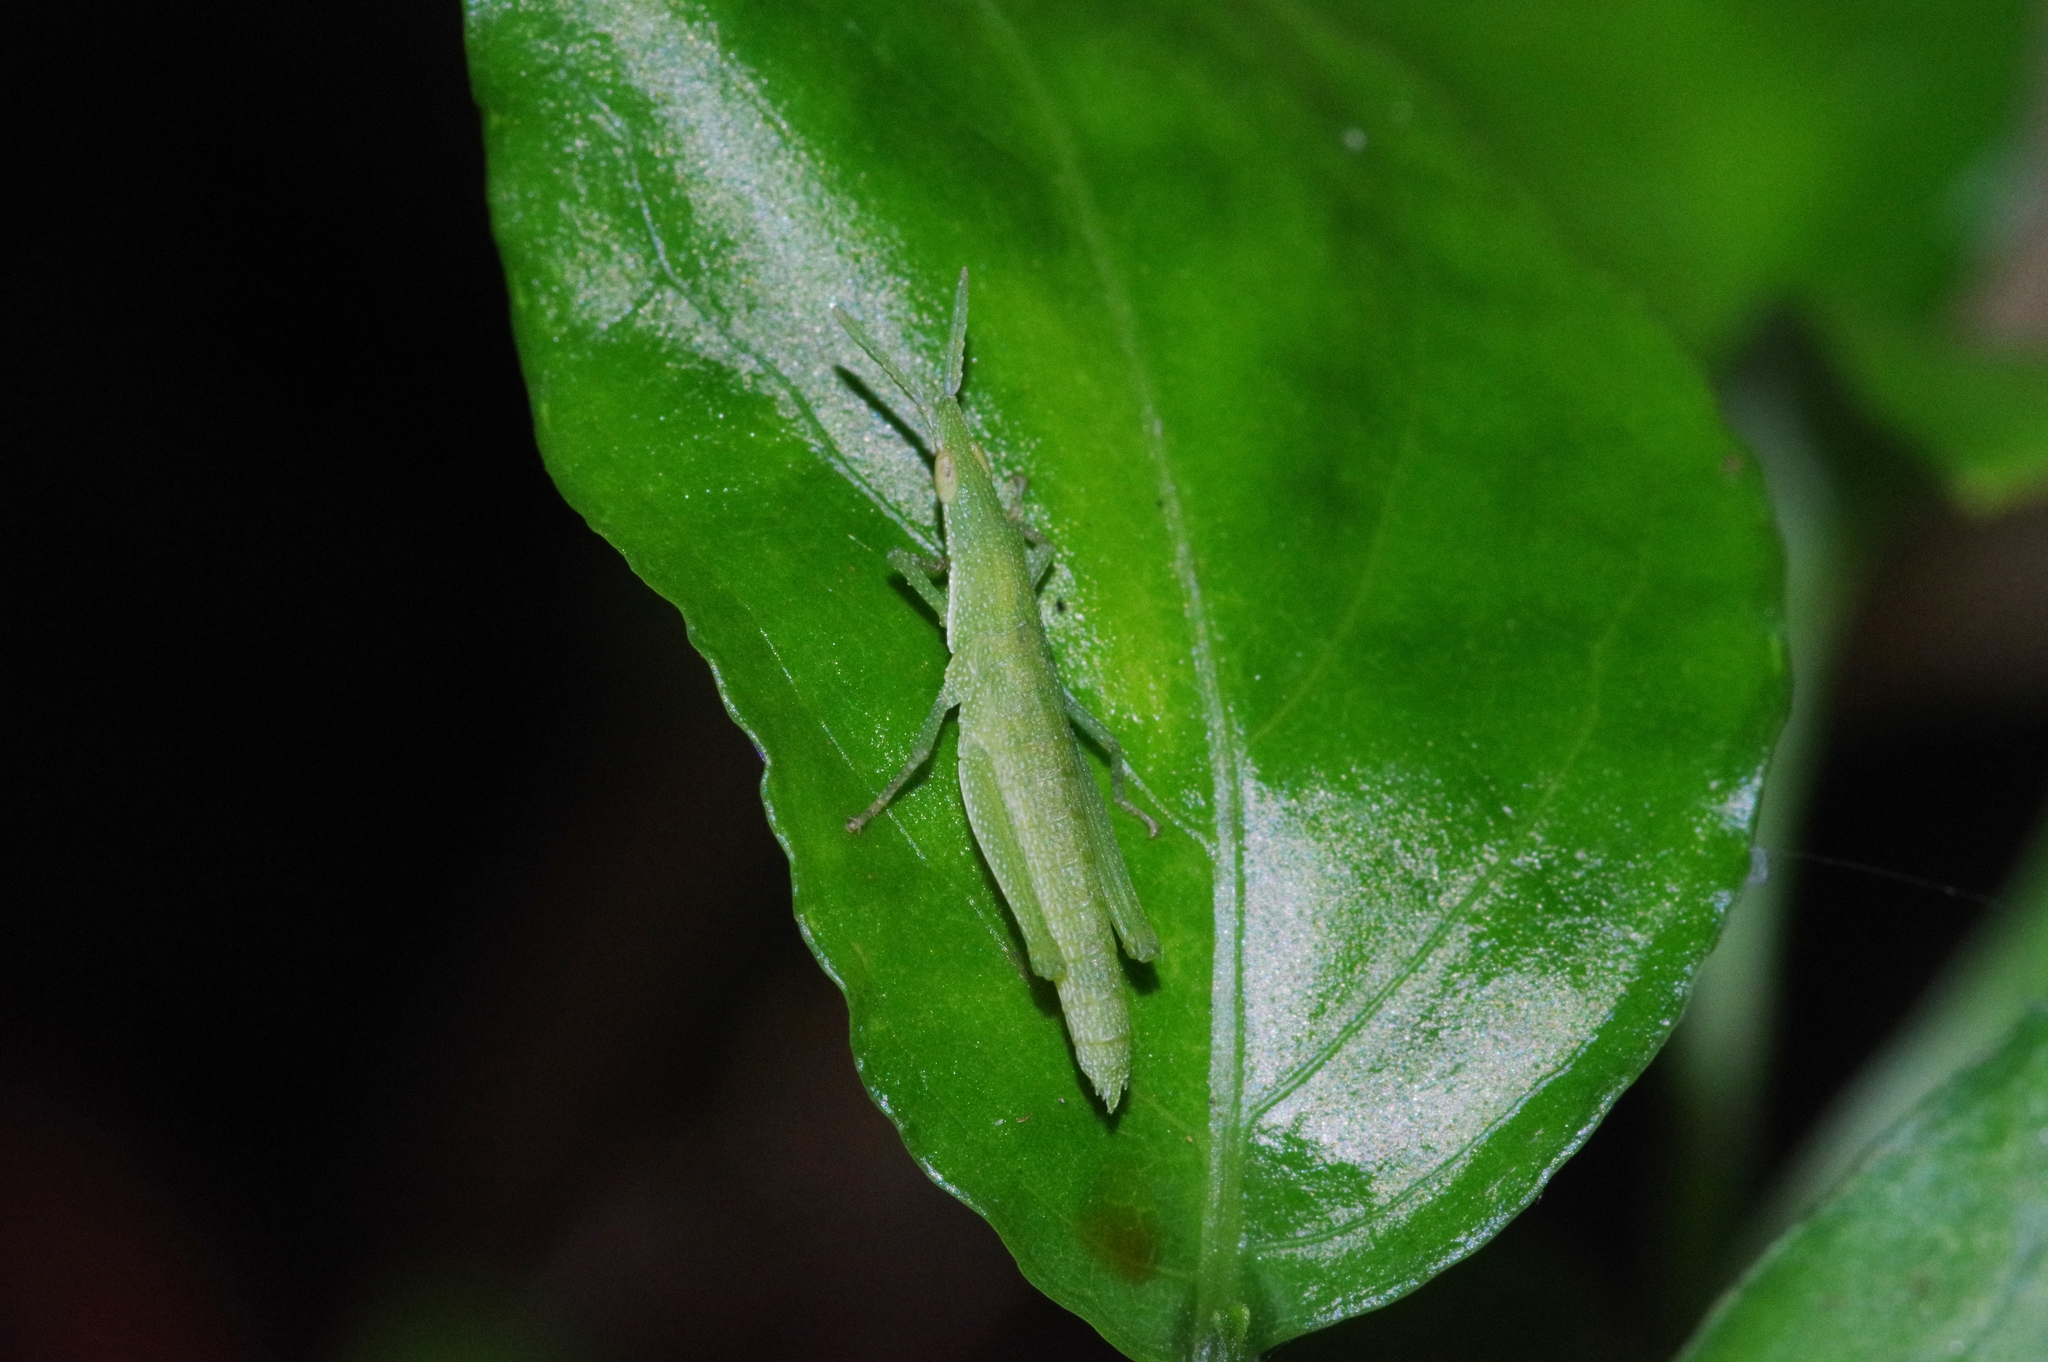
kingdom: Animalia
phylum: Arthropoda
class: Insecta
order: Orthoptera
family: Pyrgomorphidae
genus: Atractomorpha
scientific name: Atractomorpha sinensis
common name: Pinkwinged grasshopper
